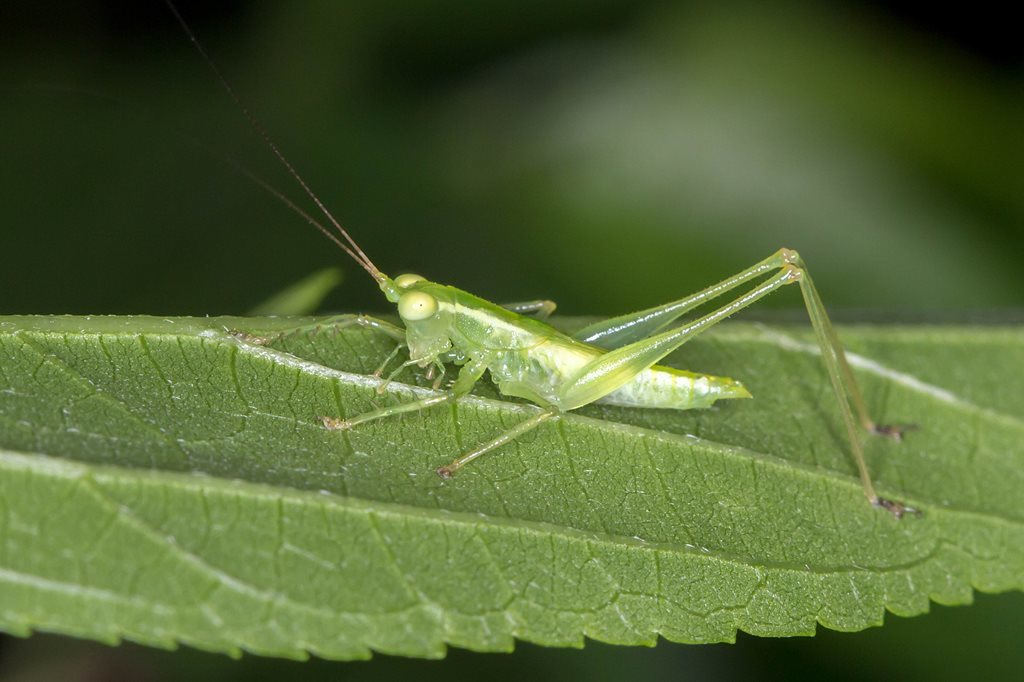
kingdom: Animalia
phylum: Arthropoda
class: Insecta
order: Orthoptera
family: Tettigoniidae
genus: Austrophlugis
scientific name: Austrophlugis debaari
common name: Debaar's swayer
